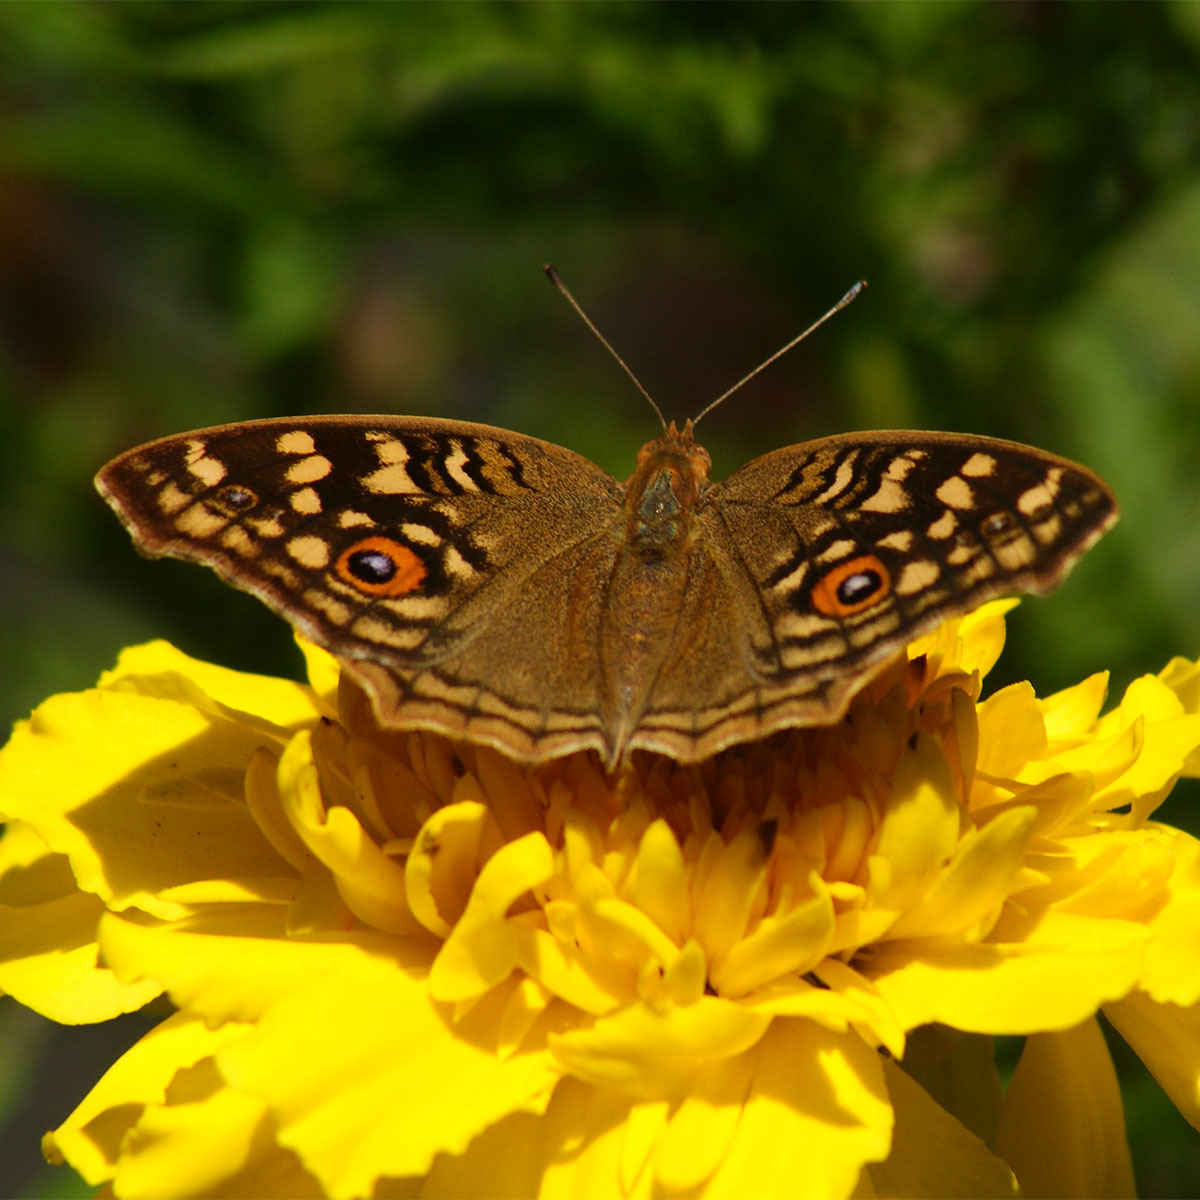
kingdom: Animalia
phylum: Arthropoda
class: Insecta
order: Lepidoptera
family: Nymphalidae
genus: Junonia
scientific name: Junonia lemonias
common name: Lemon pansy
